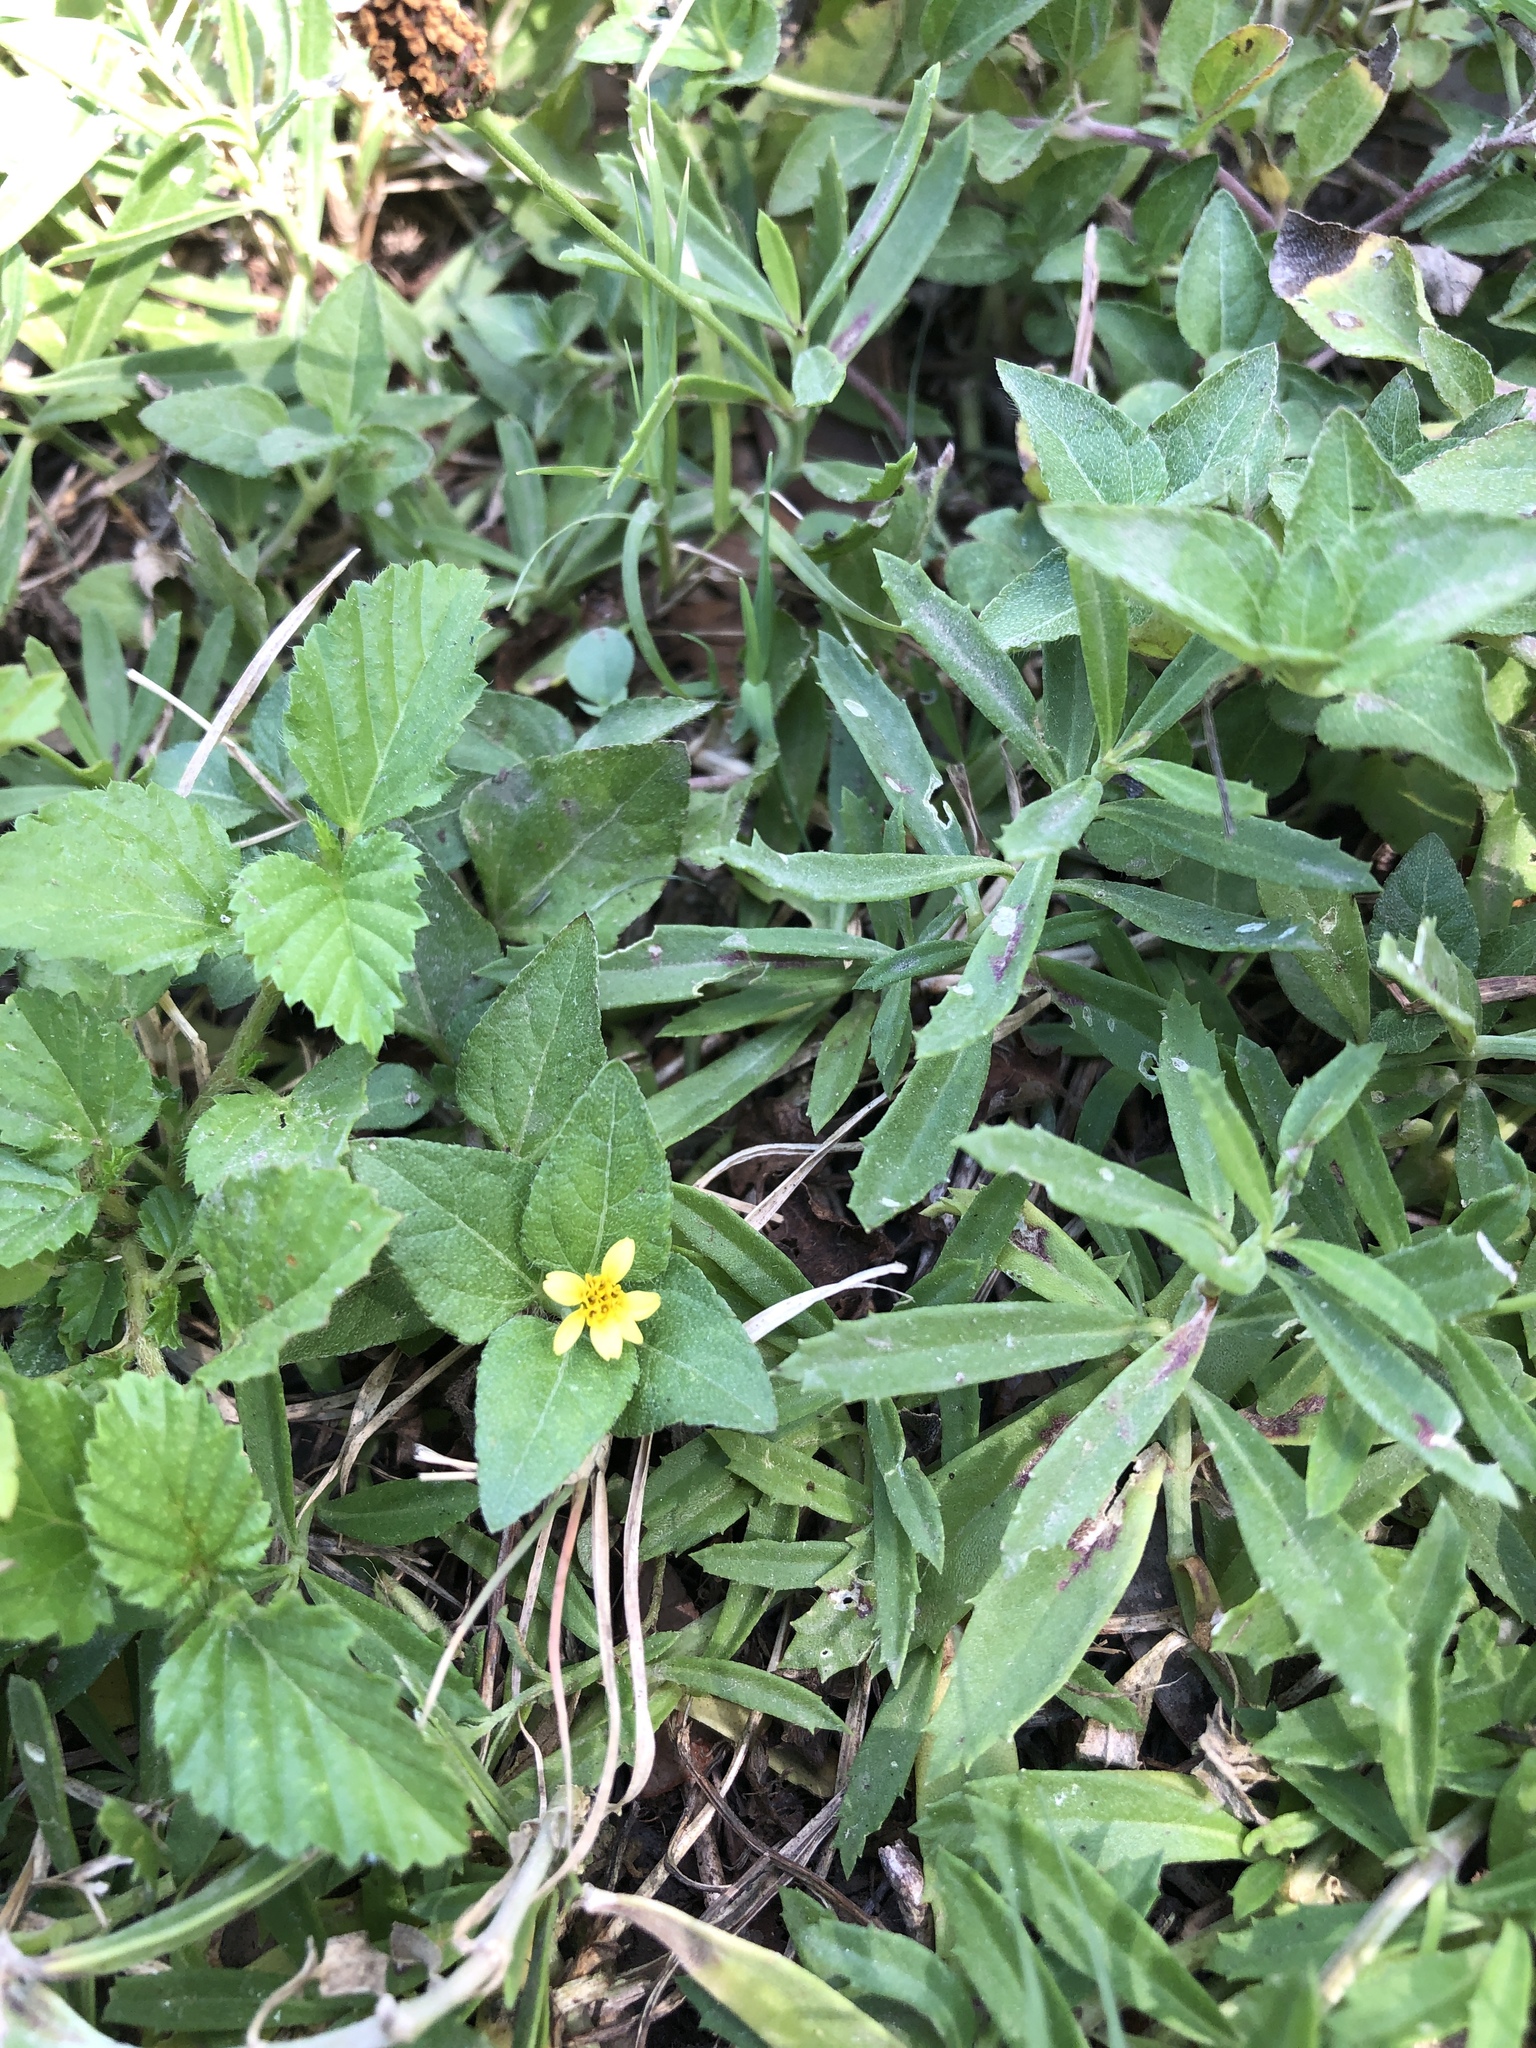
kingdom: Plantae
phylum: Tracheophyta
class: Magnoliopsida
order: Asterales
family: Asteraceae
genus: Calyptocarpus
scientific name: Calyptocarpus vialis
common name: Straggler daisy
